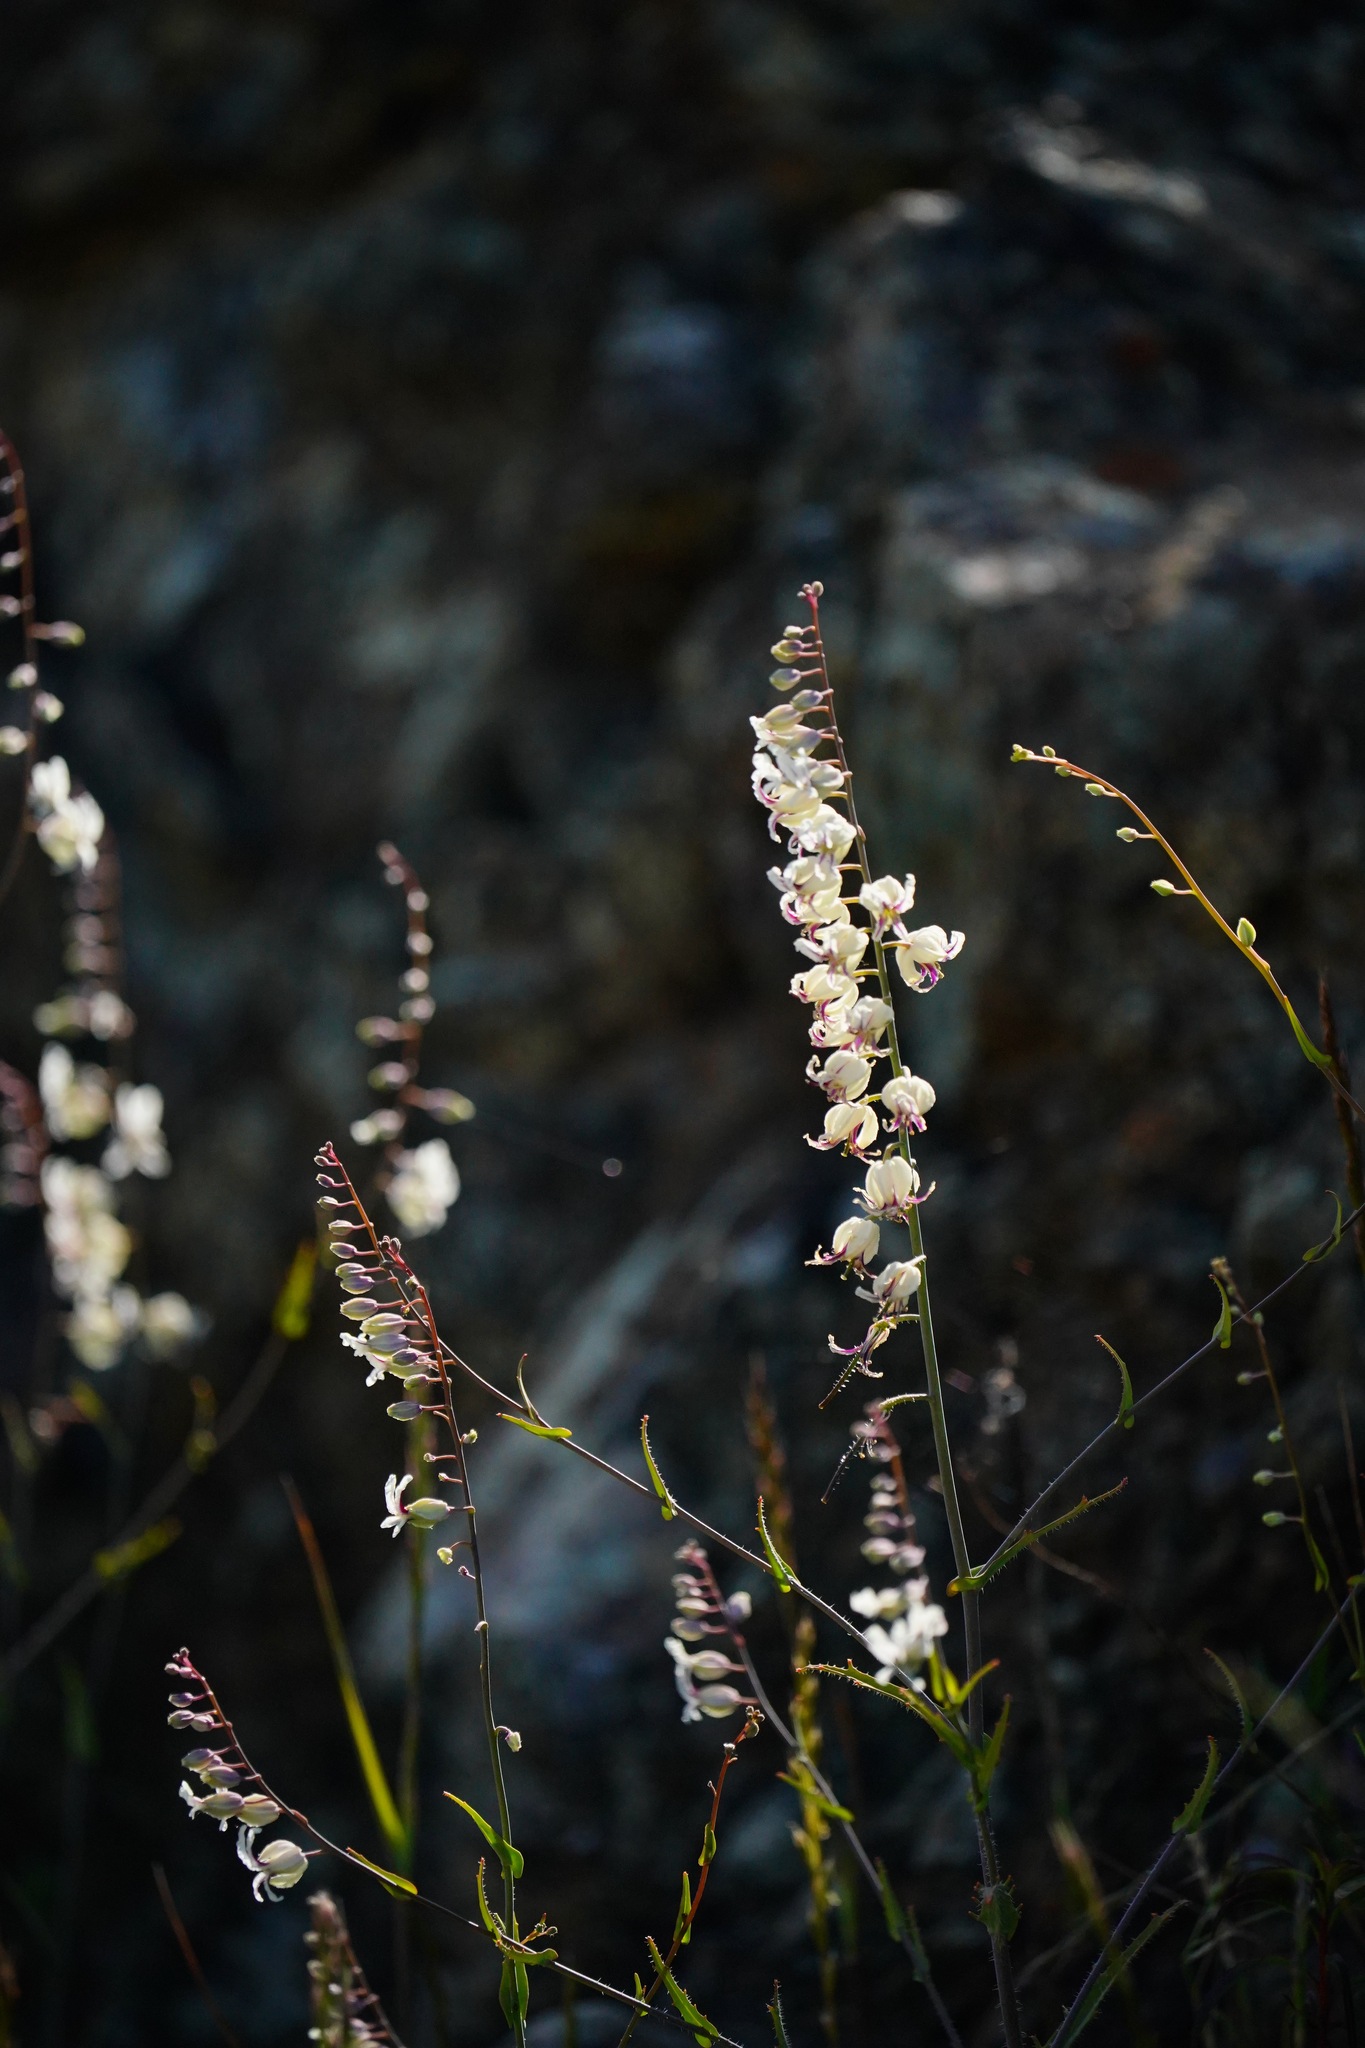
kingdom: Plantae
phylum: Tracheophyta
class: Magnoliopsida
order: Brassicales
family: Brassicaceae
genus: Streptanthus
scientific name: Streptanthus glandulosus
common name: Jewel-flower
